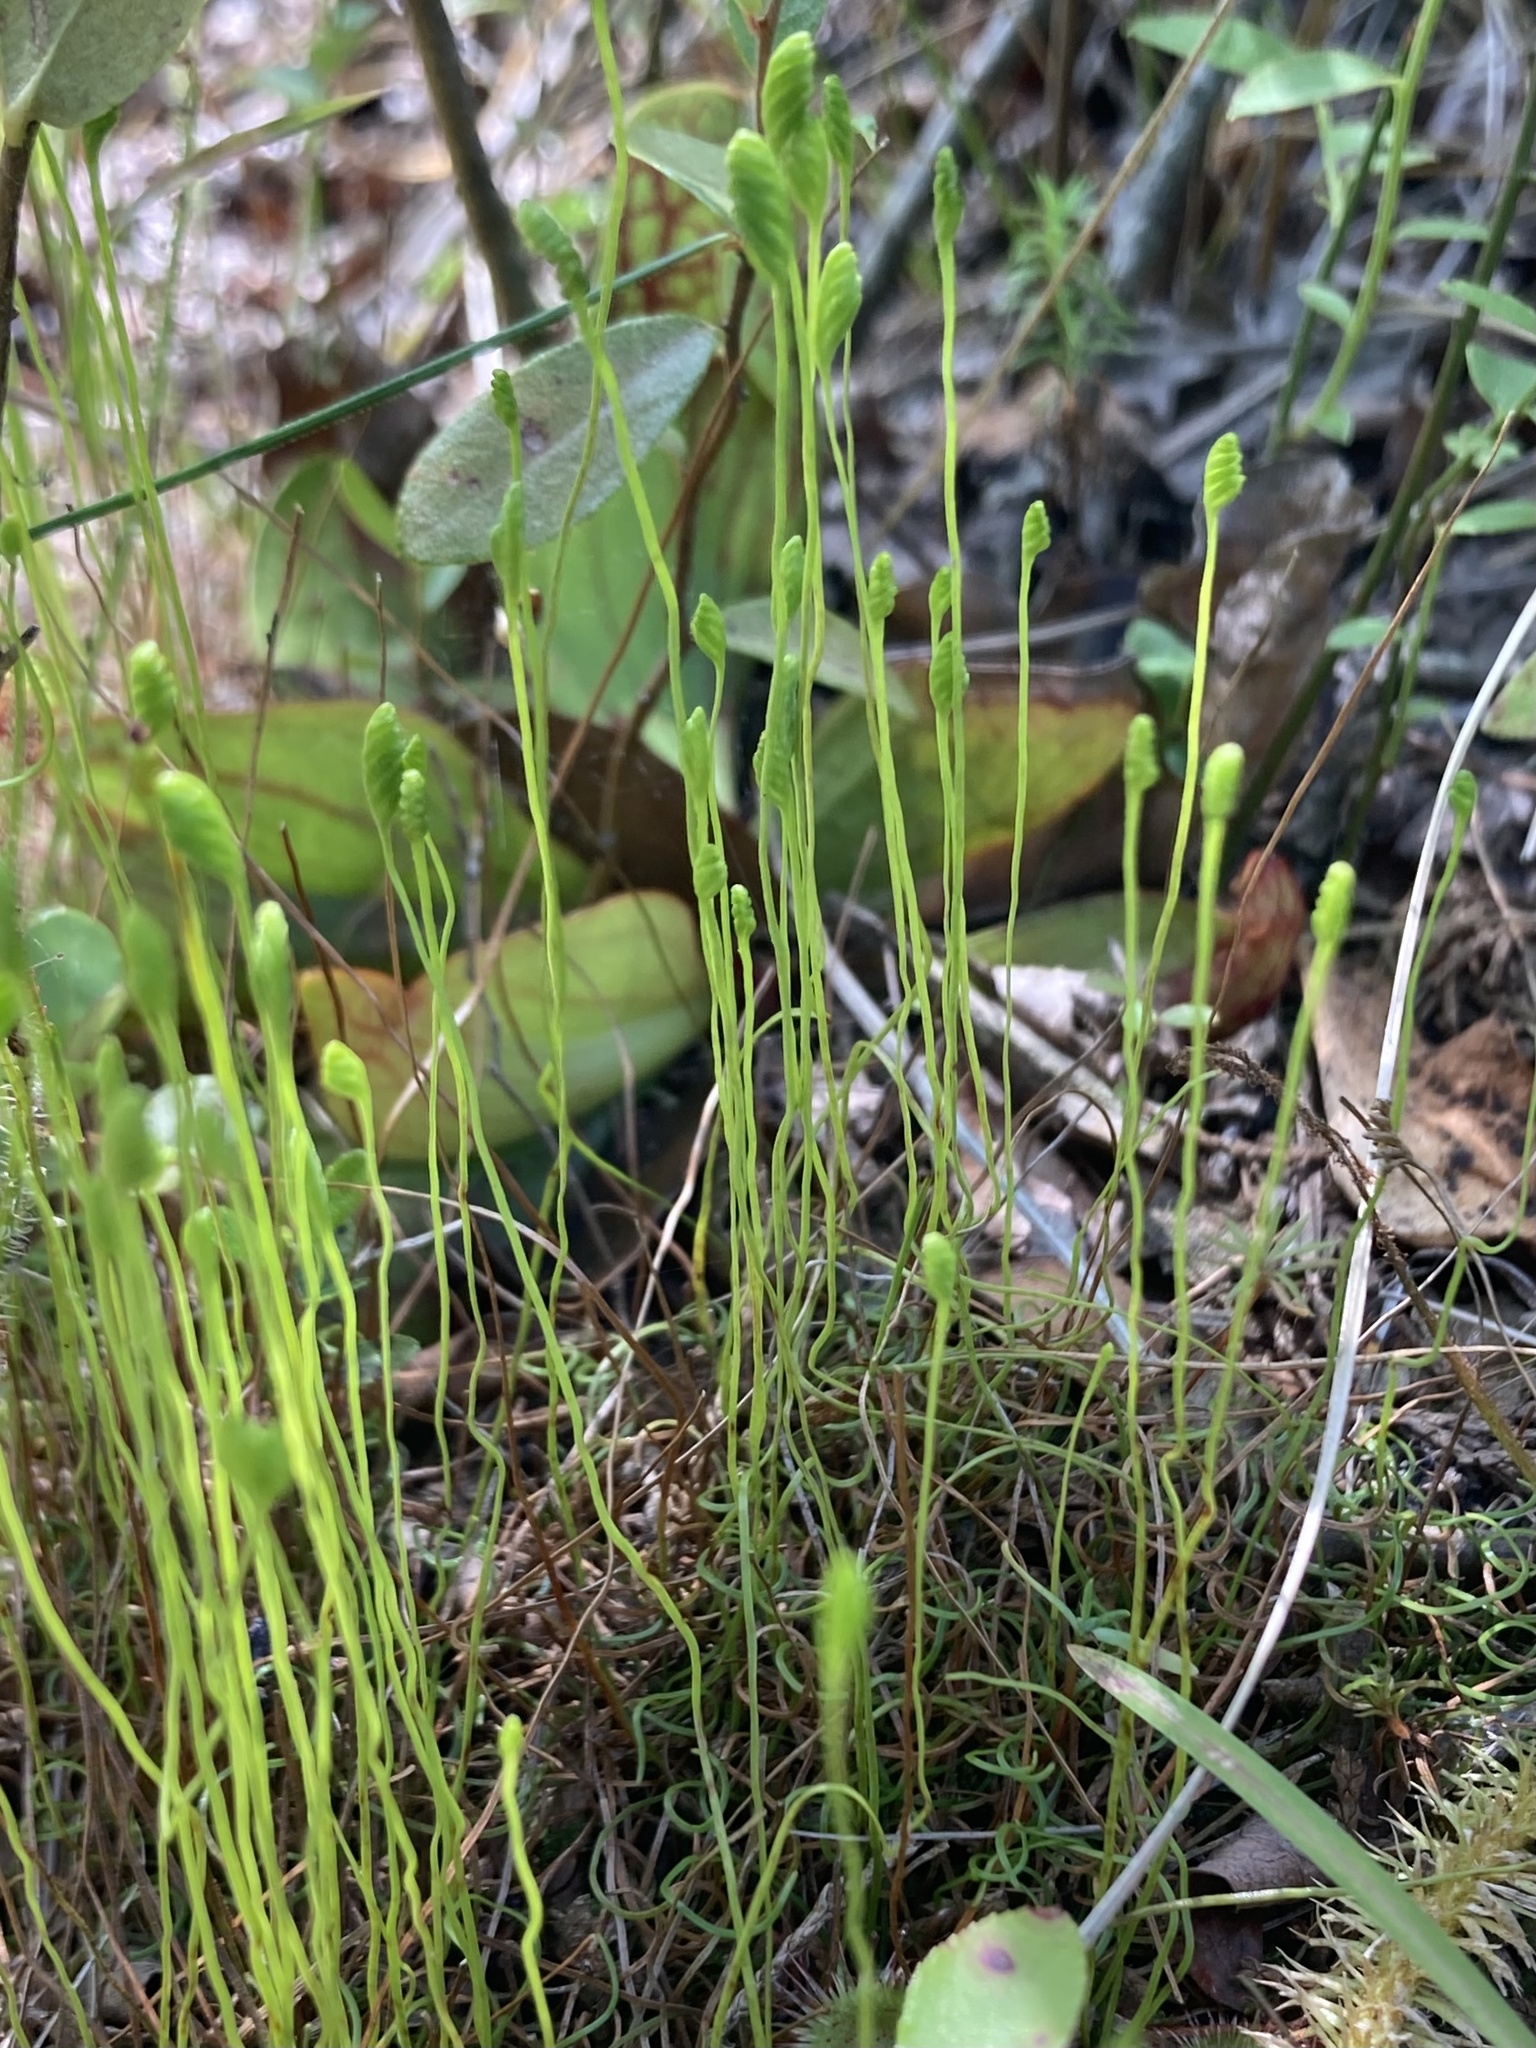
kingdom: Plantae
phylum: Tracheophyta
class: Polypodiopsida
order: Schizaeales
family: Schizaeaceae
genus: Schizaea
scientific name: Schizaea pusilla
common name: Curly-grass fern
